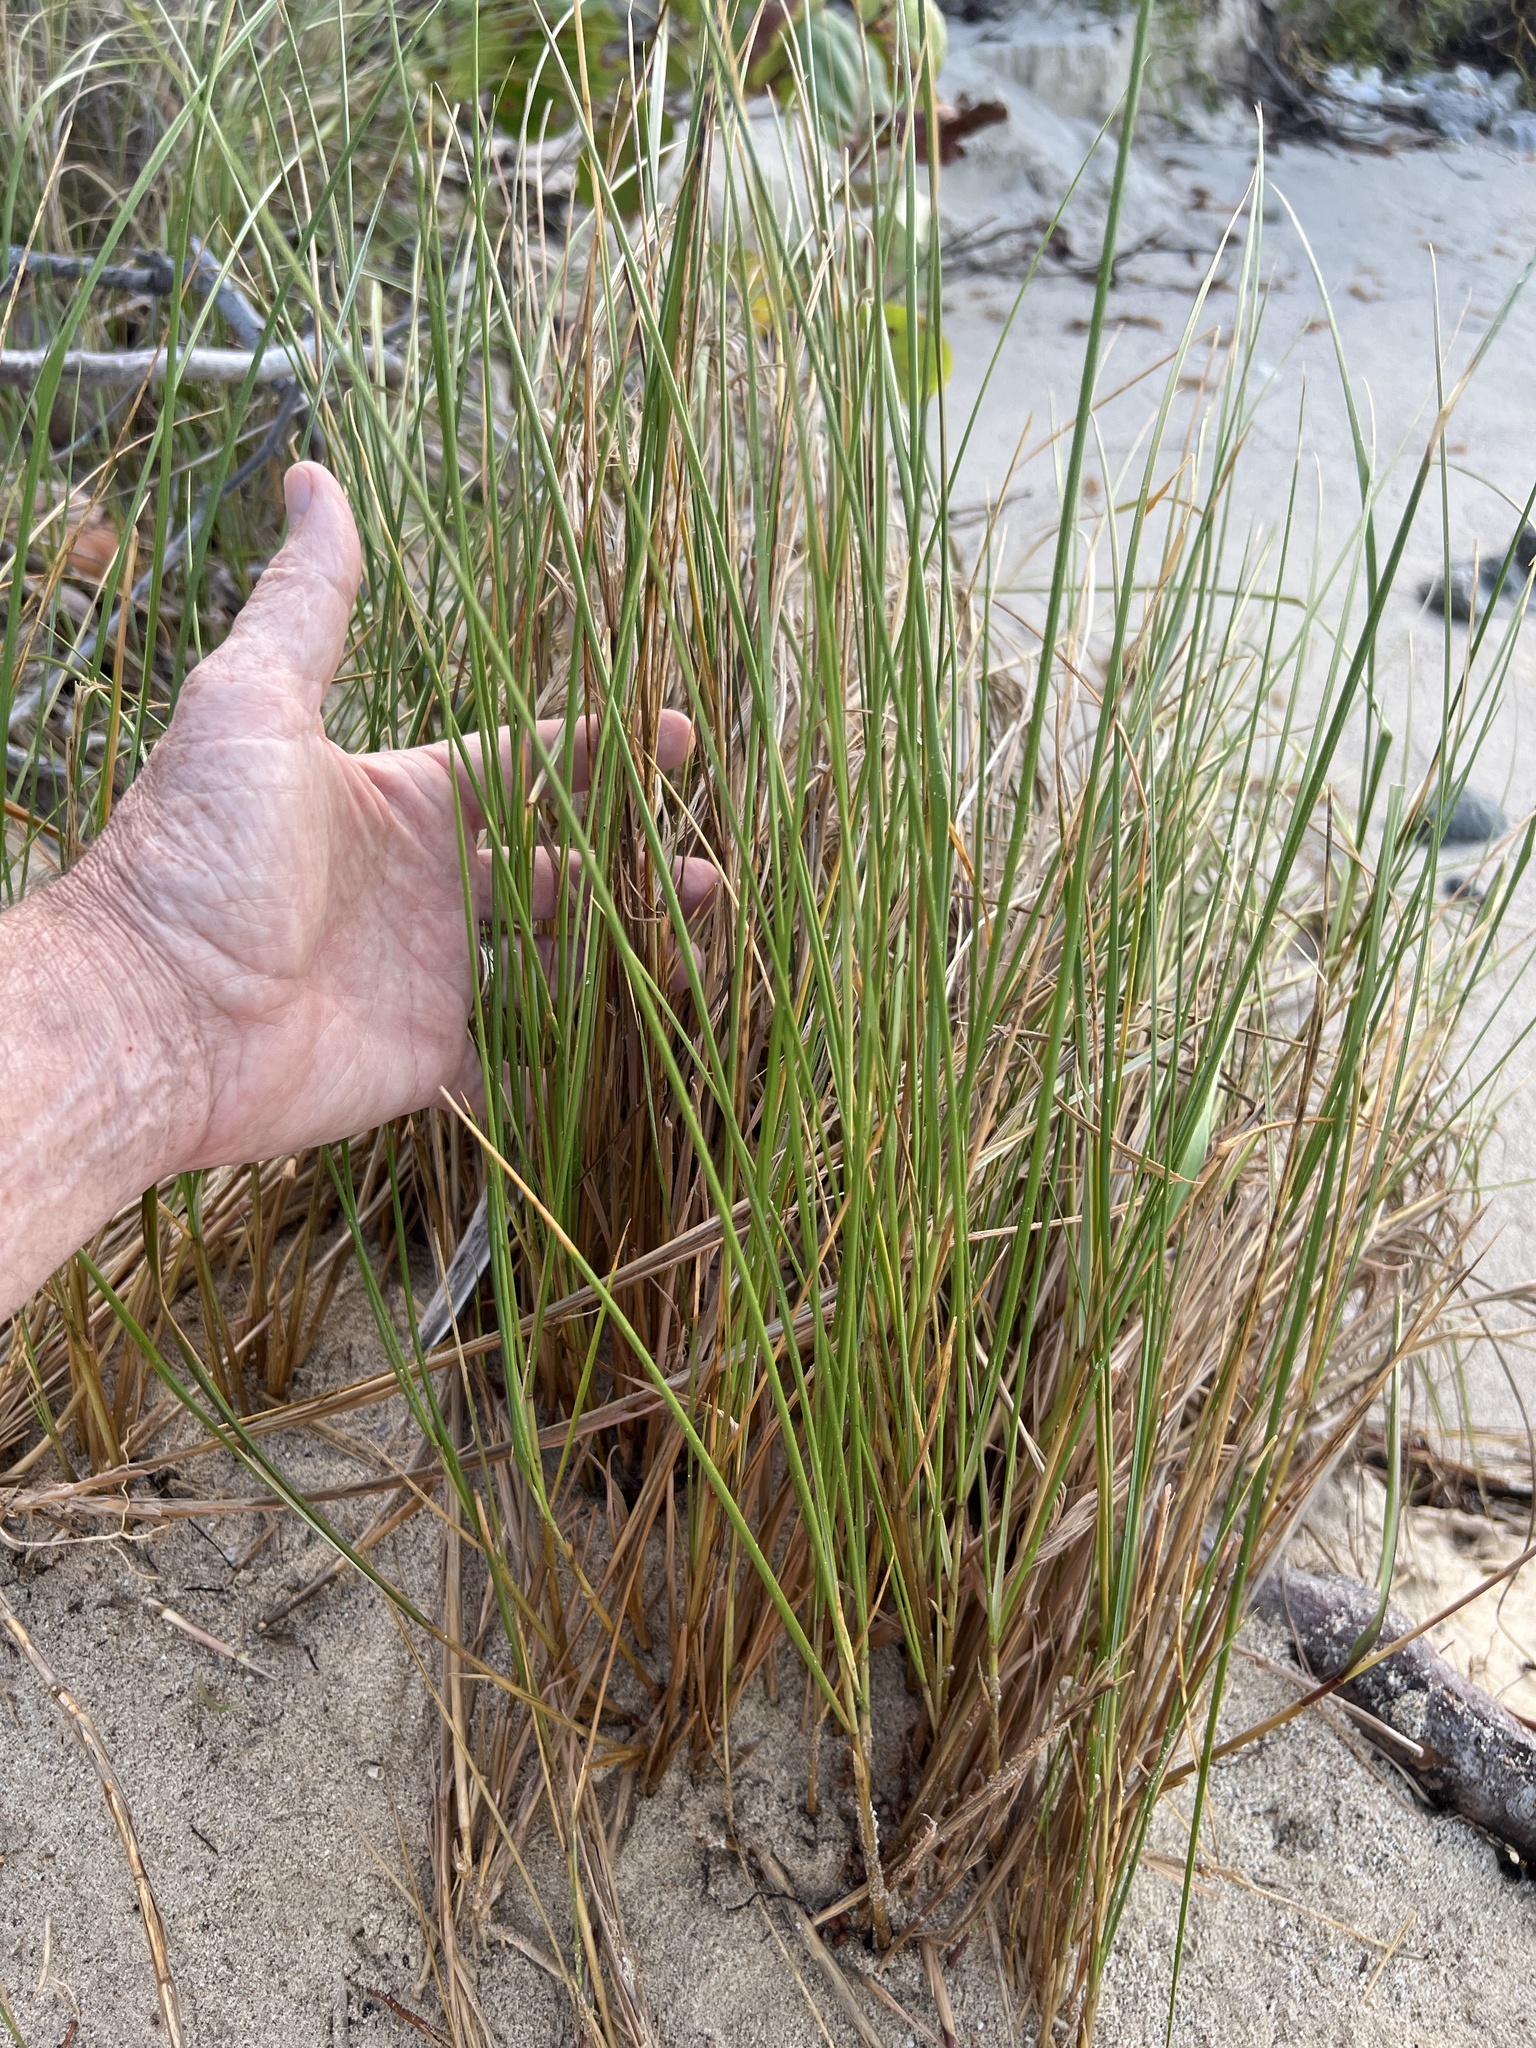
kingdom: Plantae
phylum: Tracheophyta
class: Liliopsida
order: Poales
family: Poaceae
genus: Sporobolus
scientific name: Sporobolus pumilus
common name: Highwater grass
